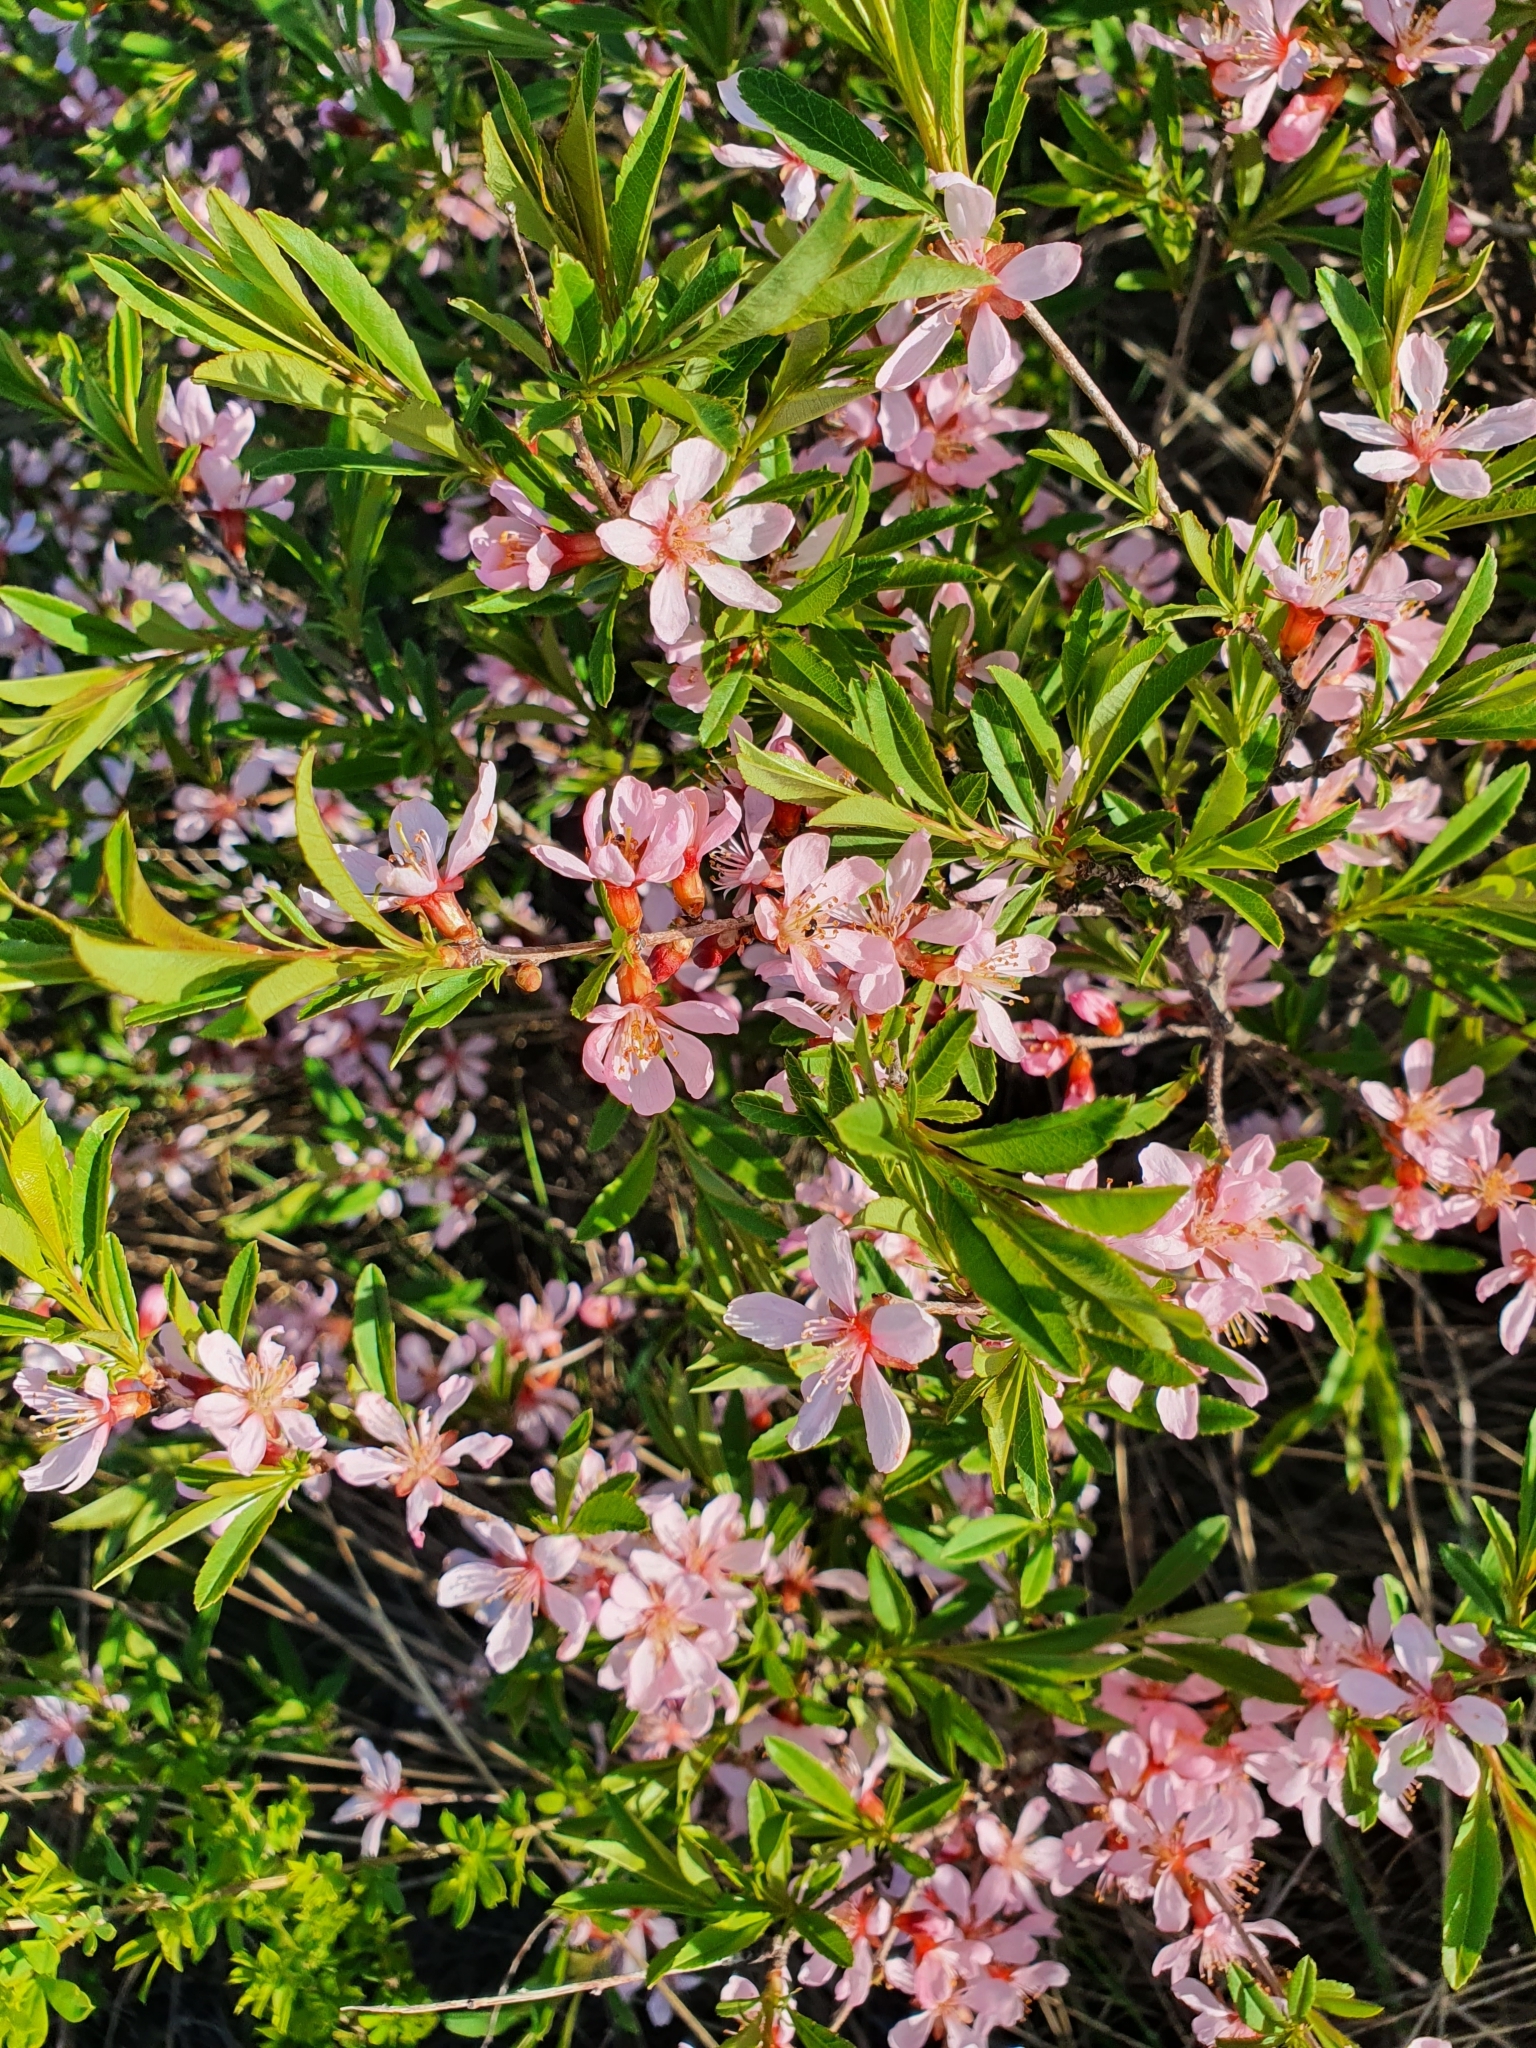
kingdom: Plantae
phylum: Tracheophyta
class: Magnoliopsida
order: Rosales
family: Rosaceae
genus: Prunus
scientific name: Prunus tenella
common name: Dwarf russian almond
